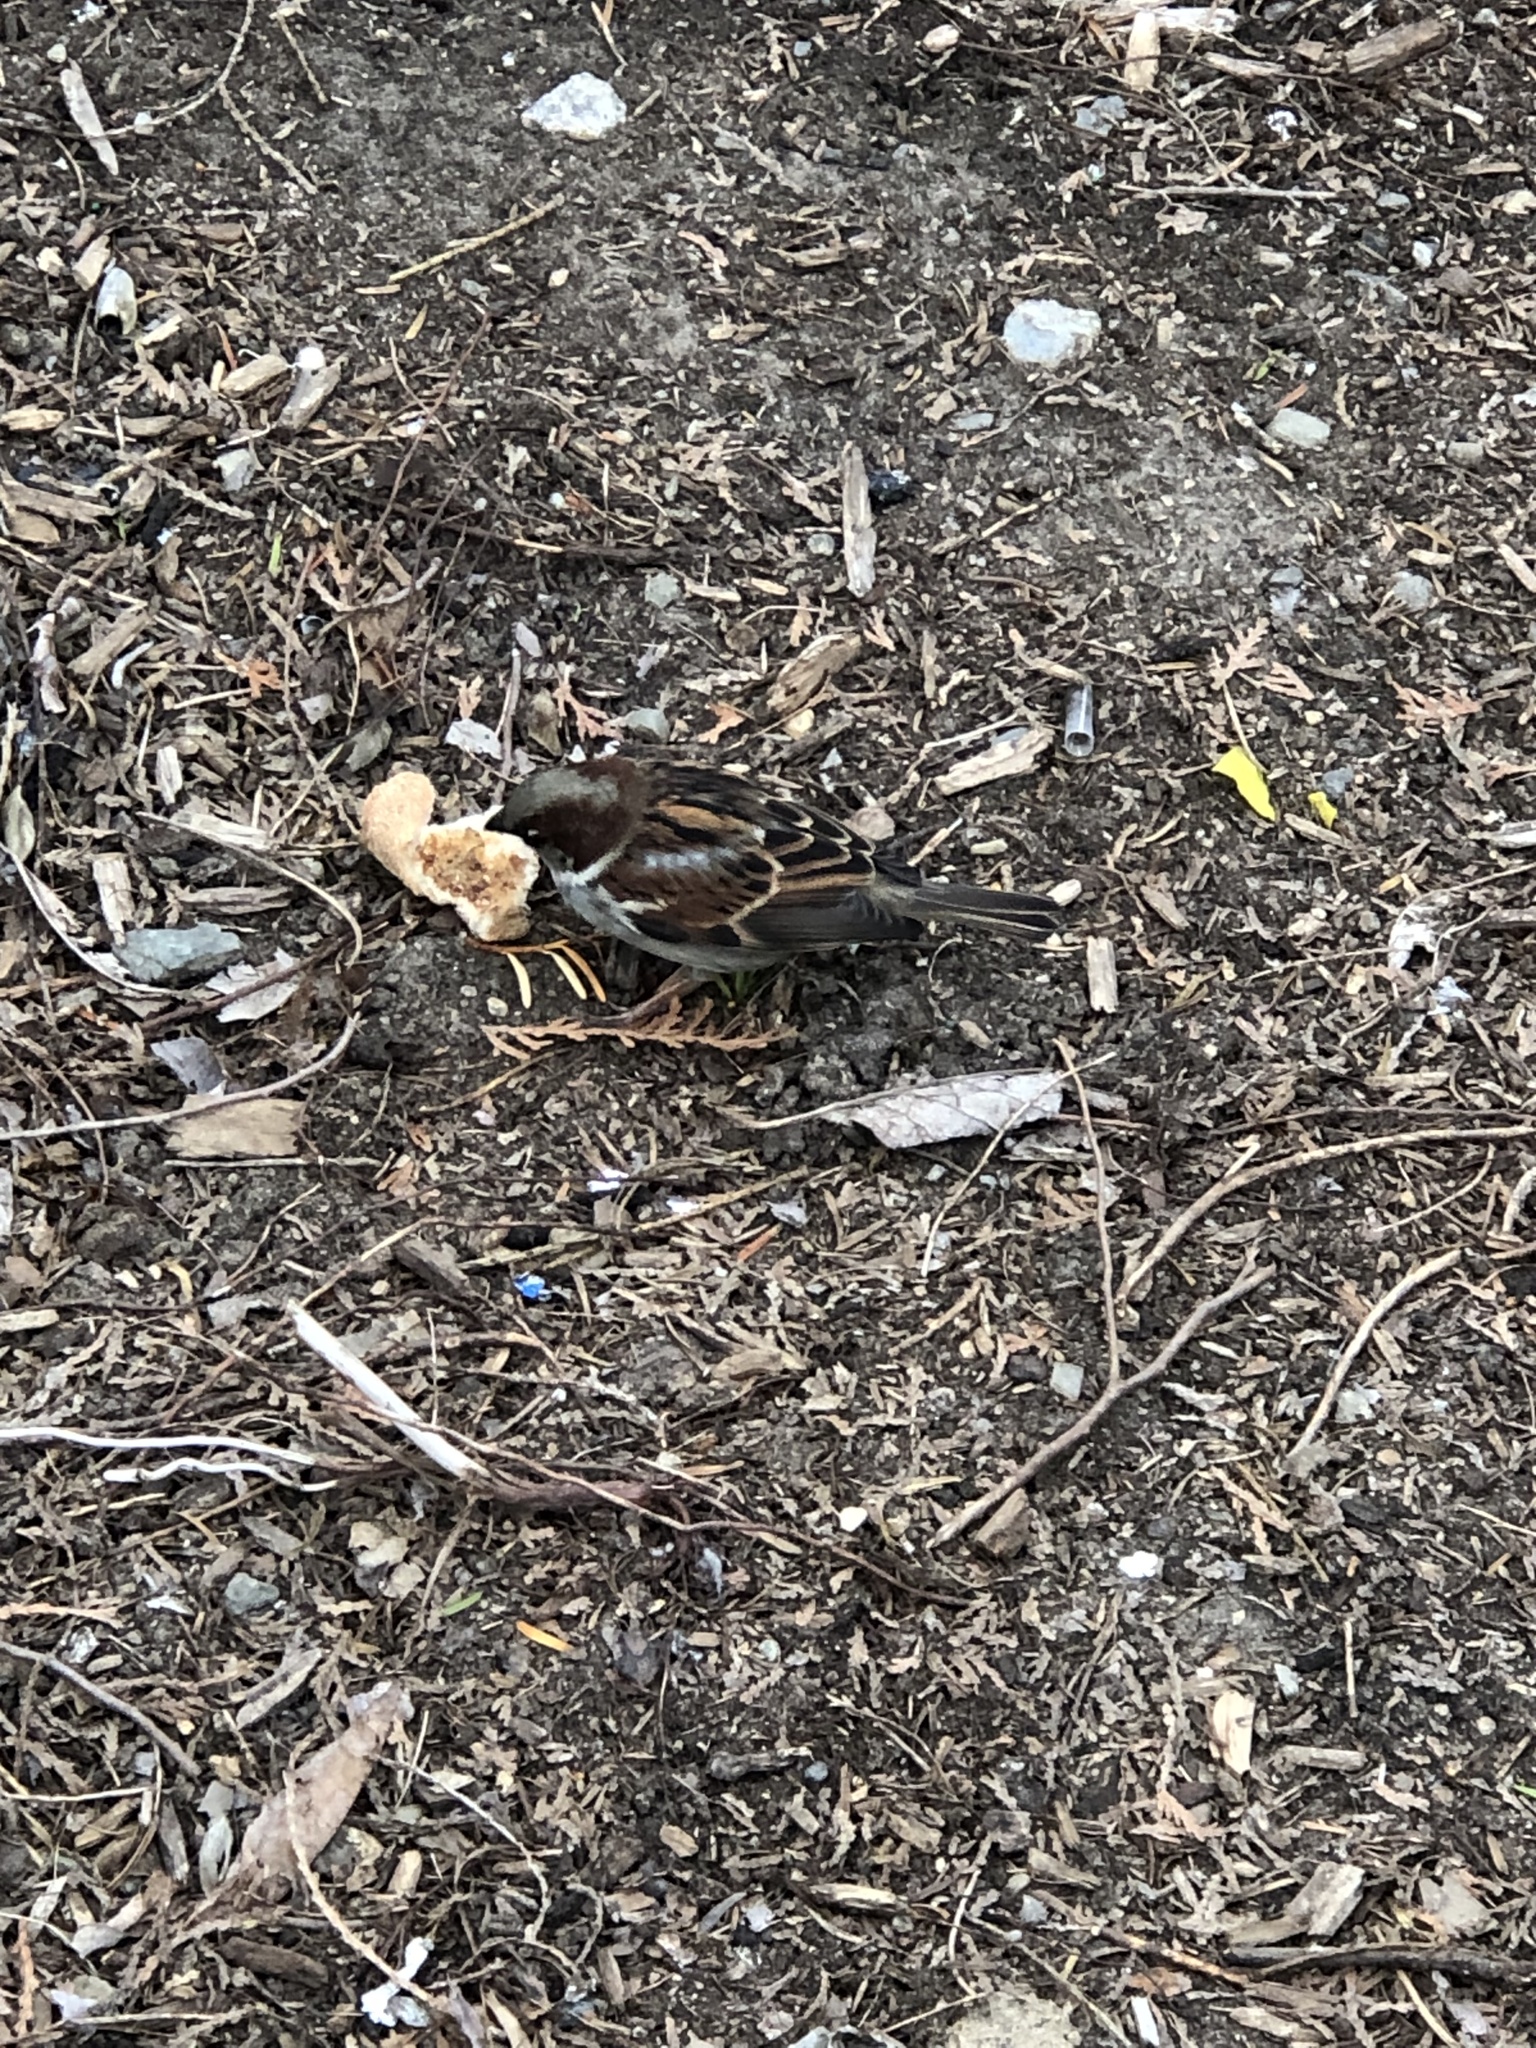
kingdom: Animalia
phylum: Chordata
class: Aves
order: Passeriformes
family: Passeridae
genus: Passer
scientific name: Passer domesticus
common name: House sparrow
